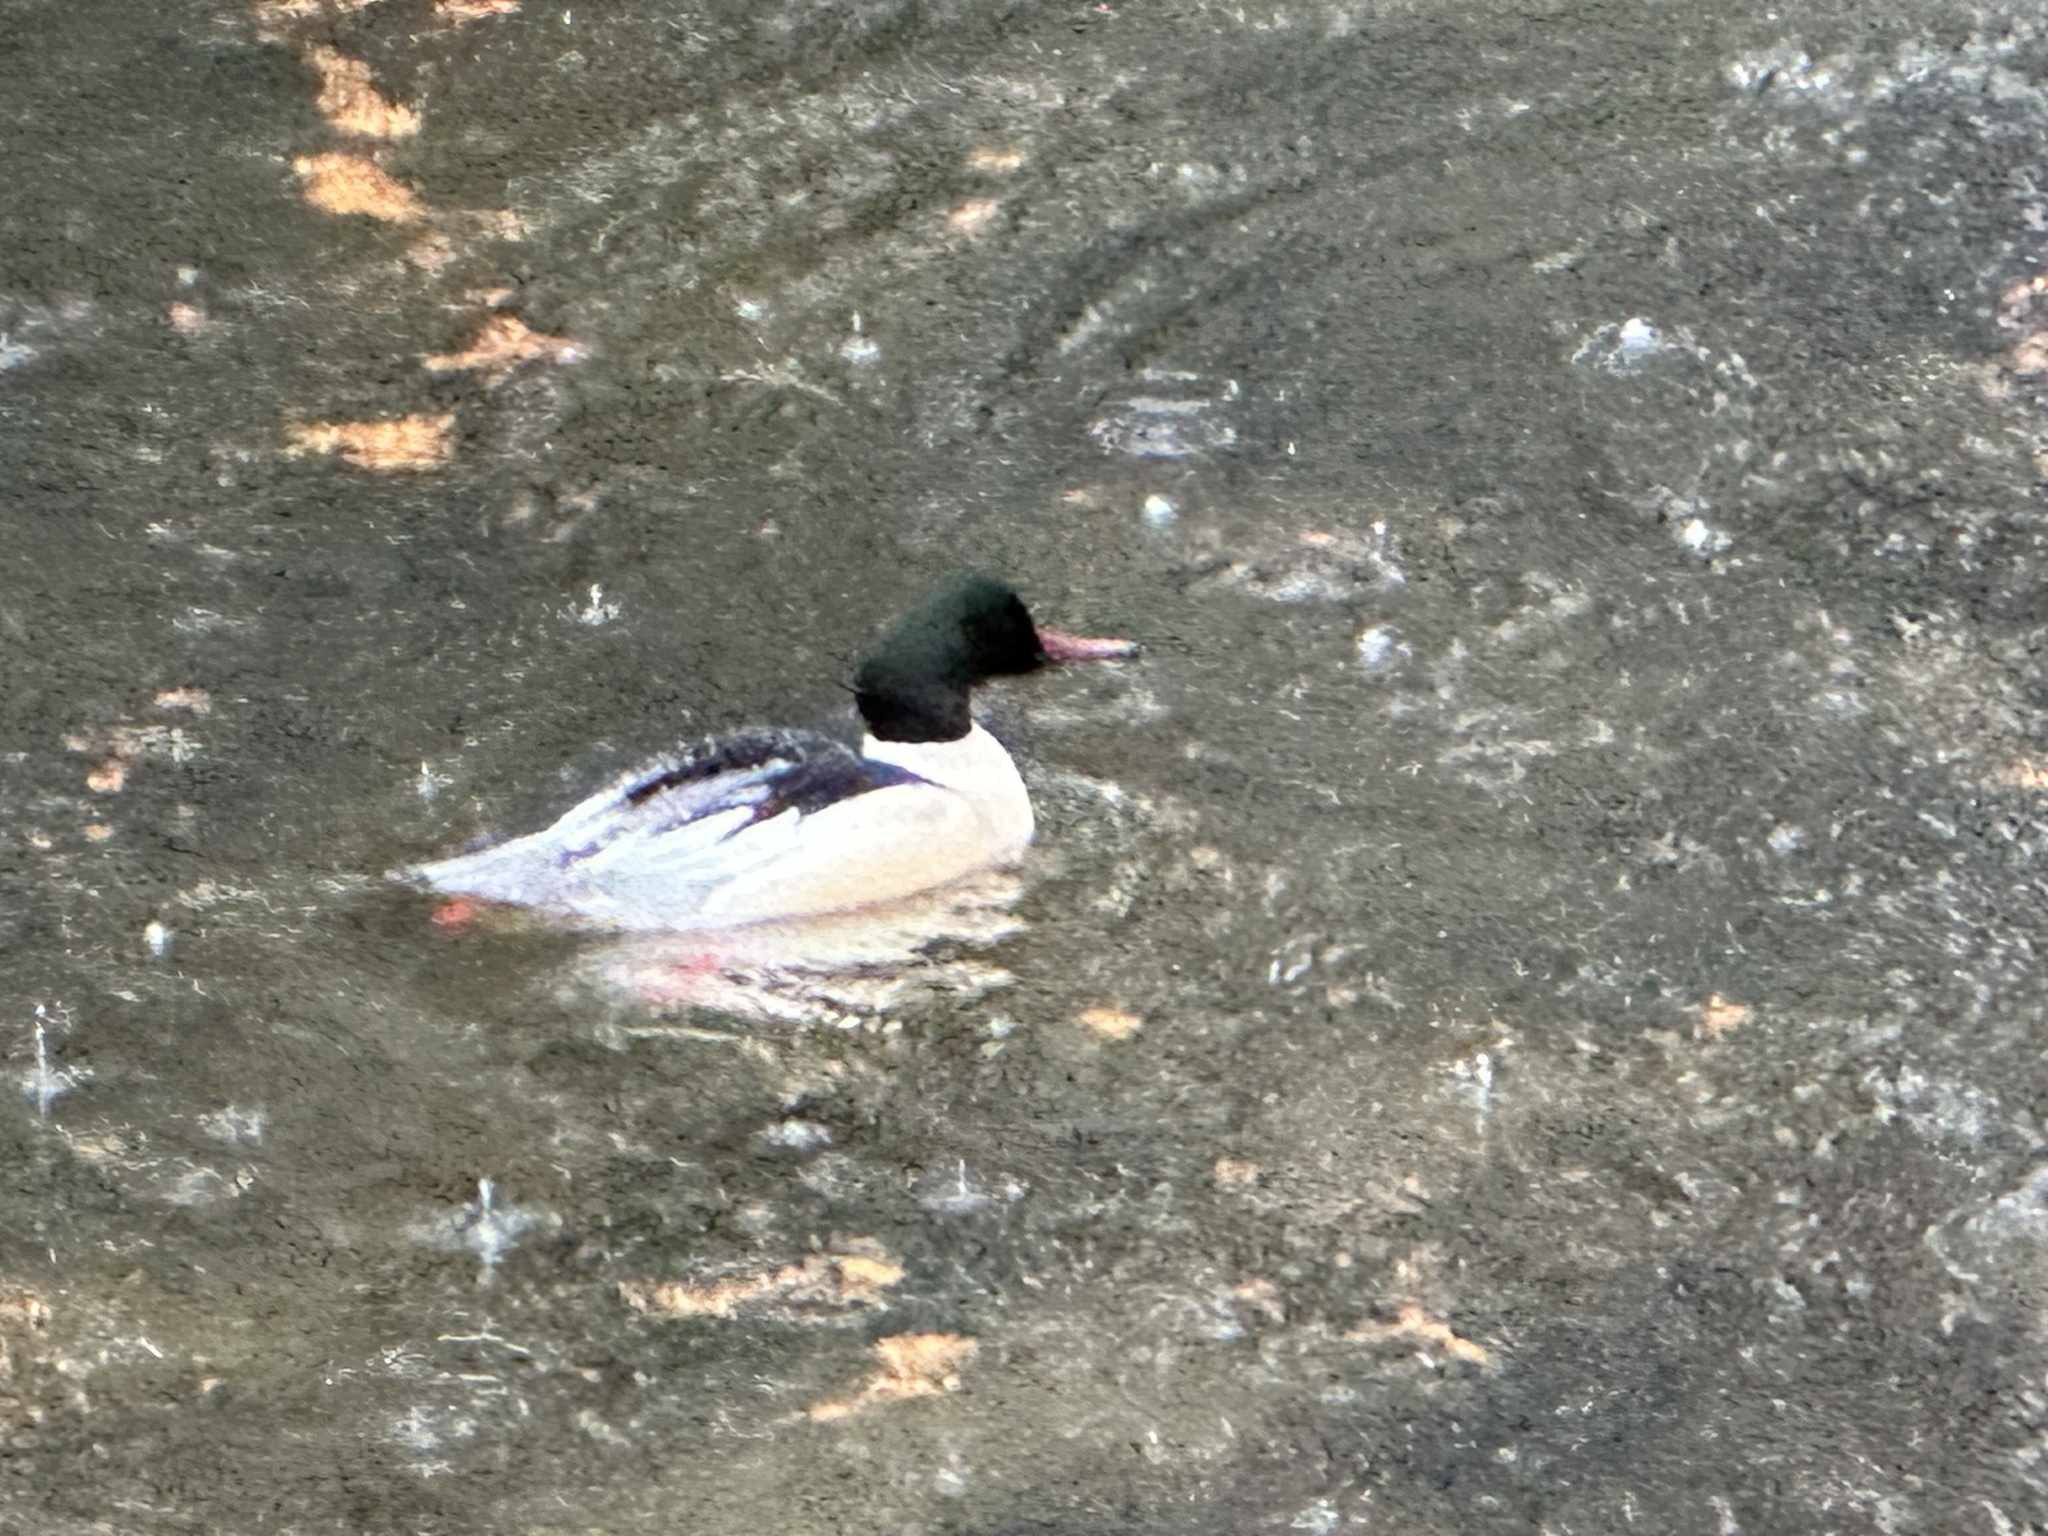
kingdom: Animalia
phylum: Chordata
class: Aves
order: Anseriformes
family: Anatidae
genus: Mergus
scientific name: Mergus merganser
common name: Common merganser
